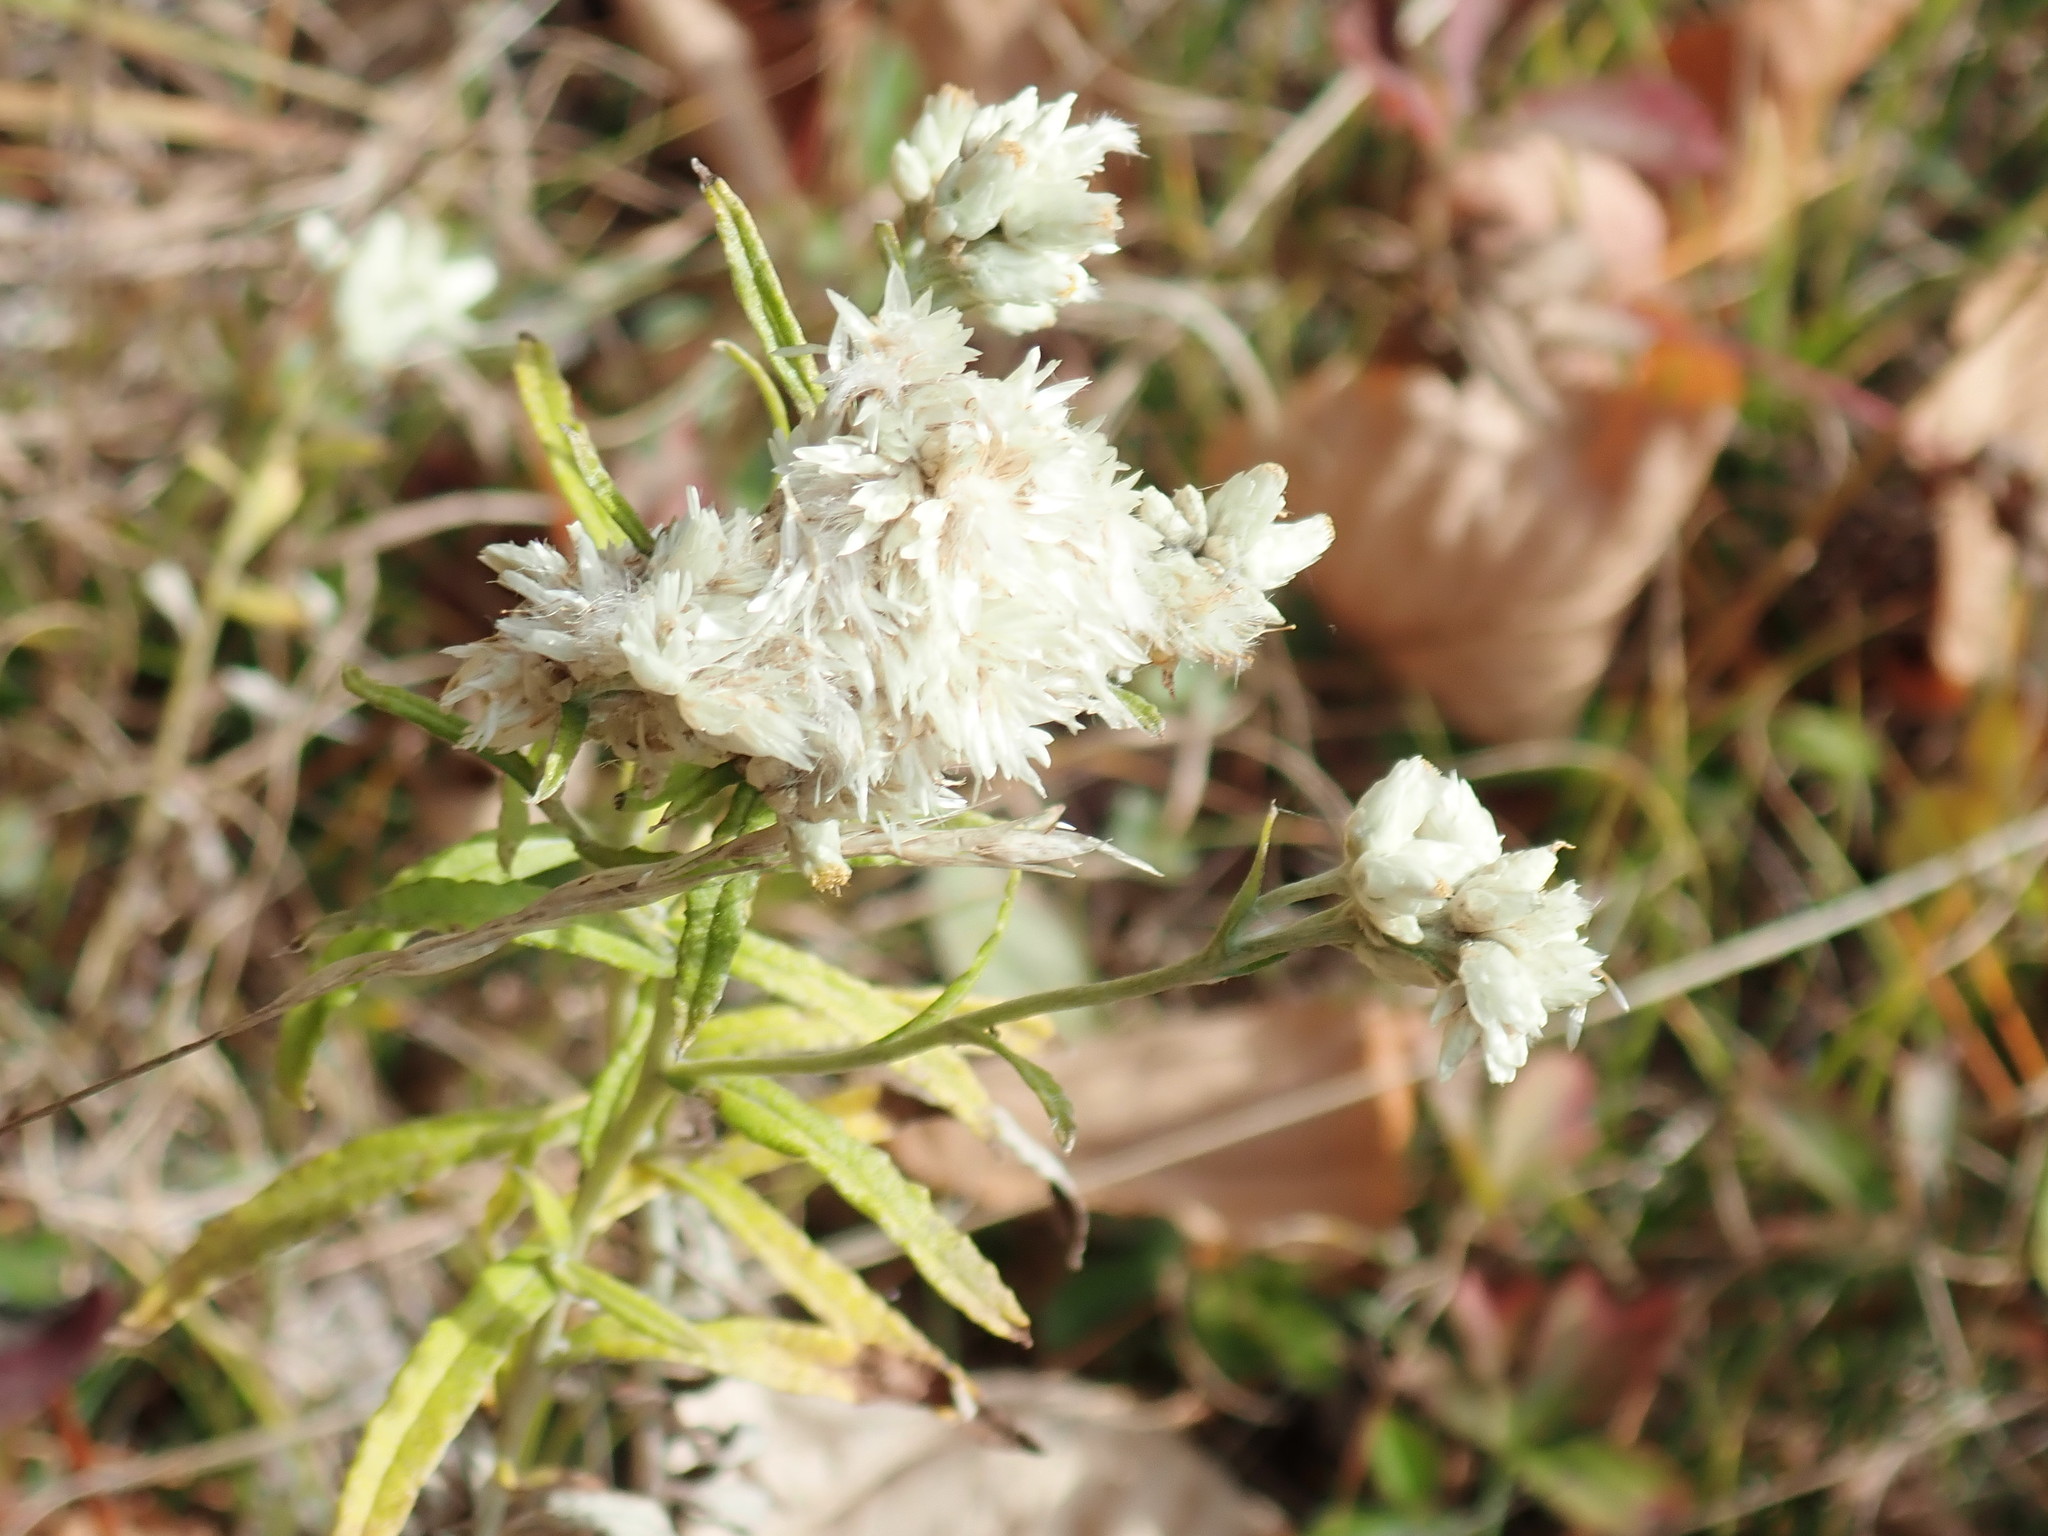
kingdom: Plantae
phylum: Tracheophyta
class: Magnoliopsida
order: Asterales
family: Asteraceae
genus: Pseudognaphalium
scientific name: Pseudognaphalium obtusifolium
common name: Eastern rabbit-tobacco
